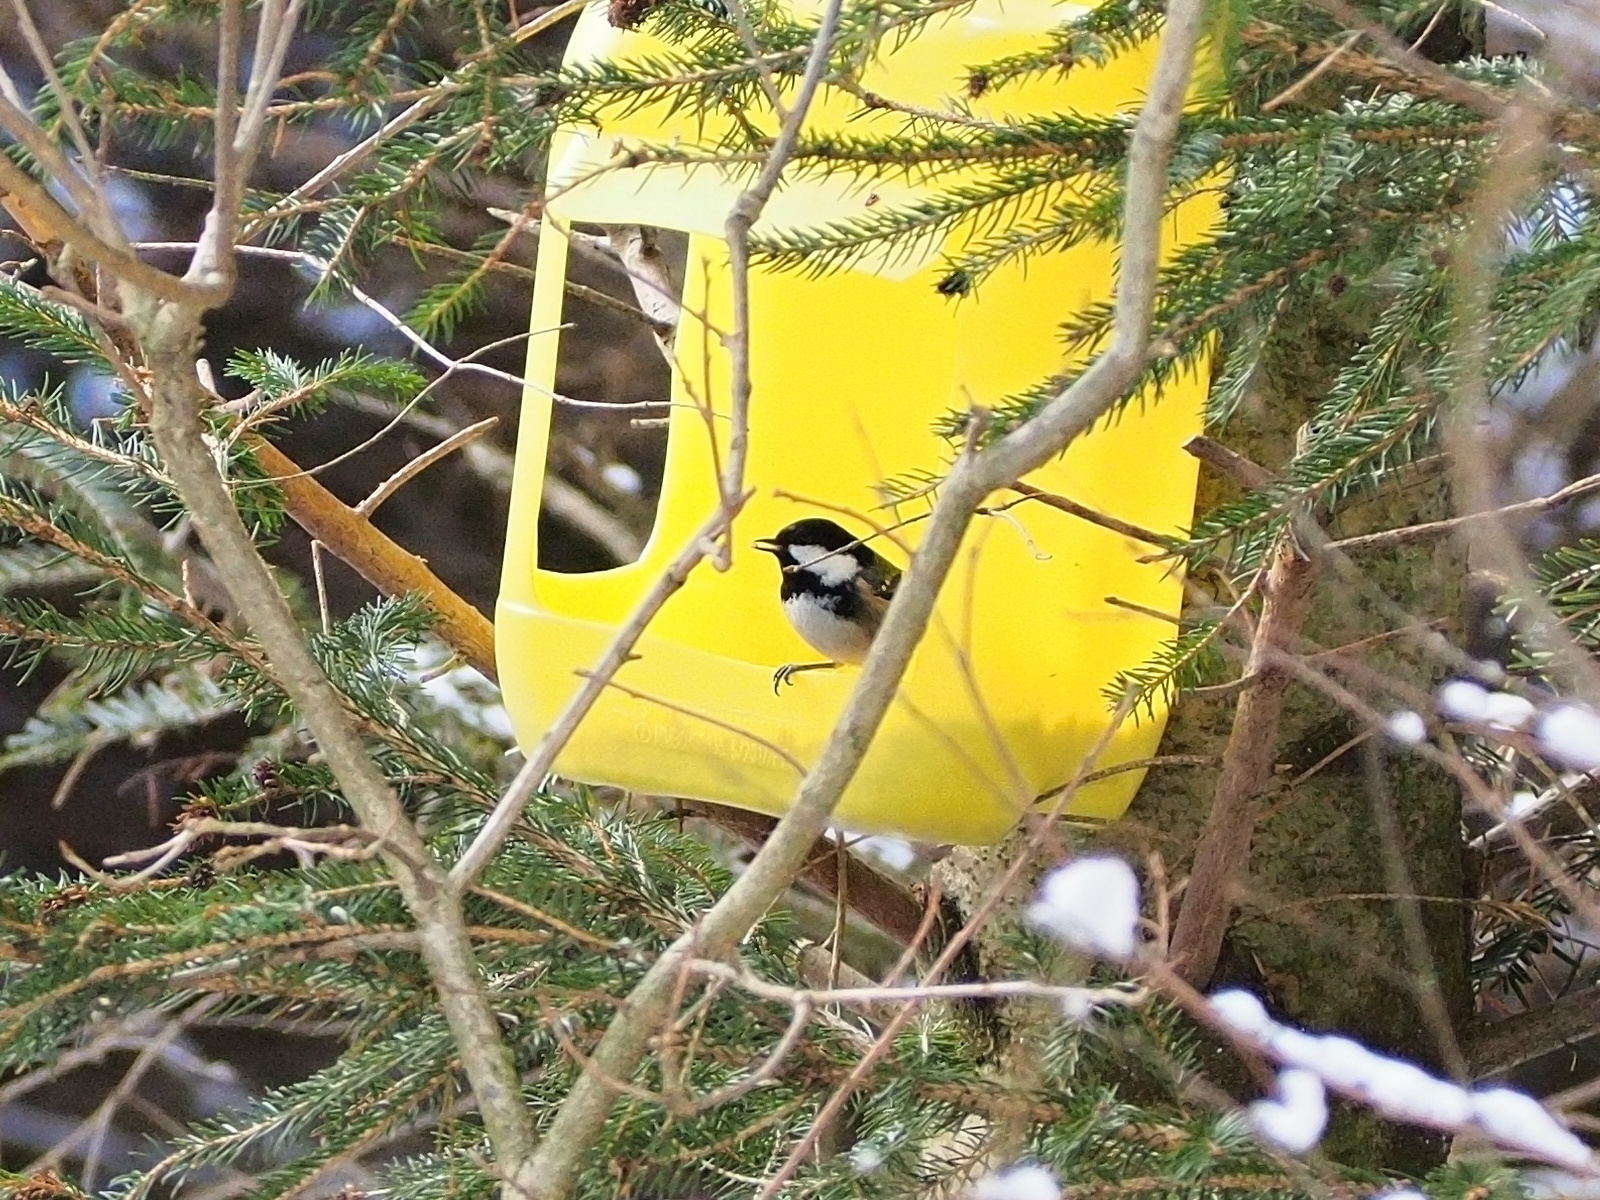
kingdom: Animalia
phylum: Chordata
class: Aves
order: Passeriformes
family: Paridae
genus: Periparus
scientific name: Periparus ater
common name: Coal tit
